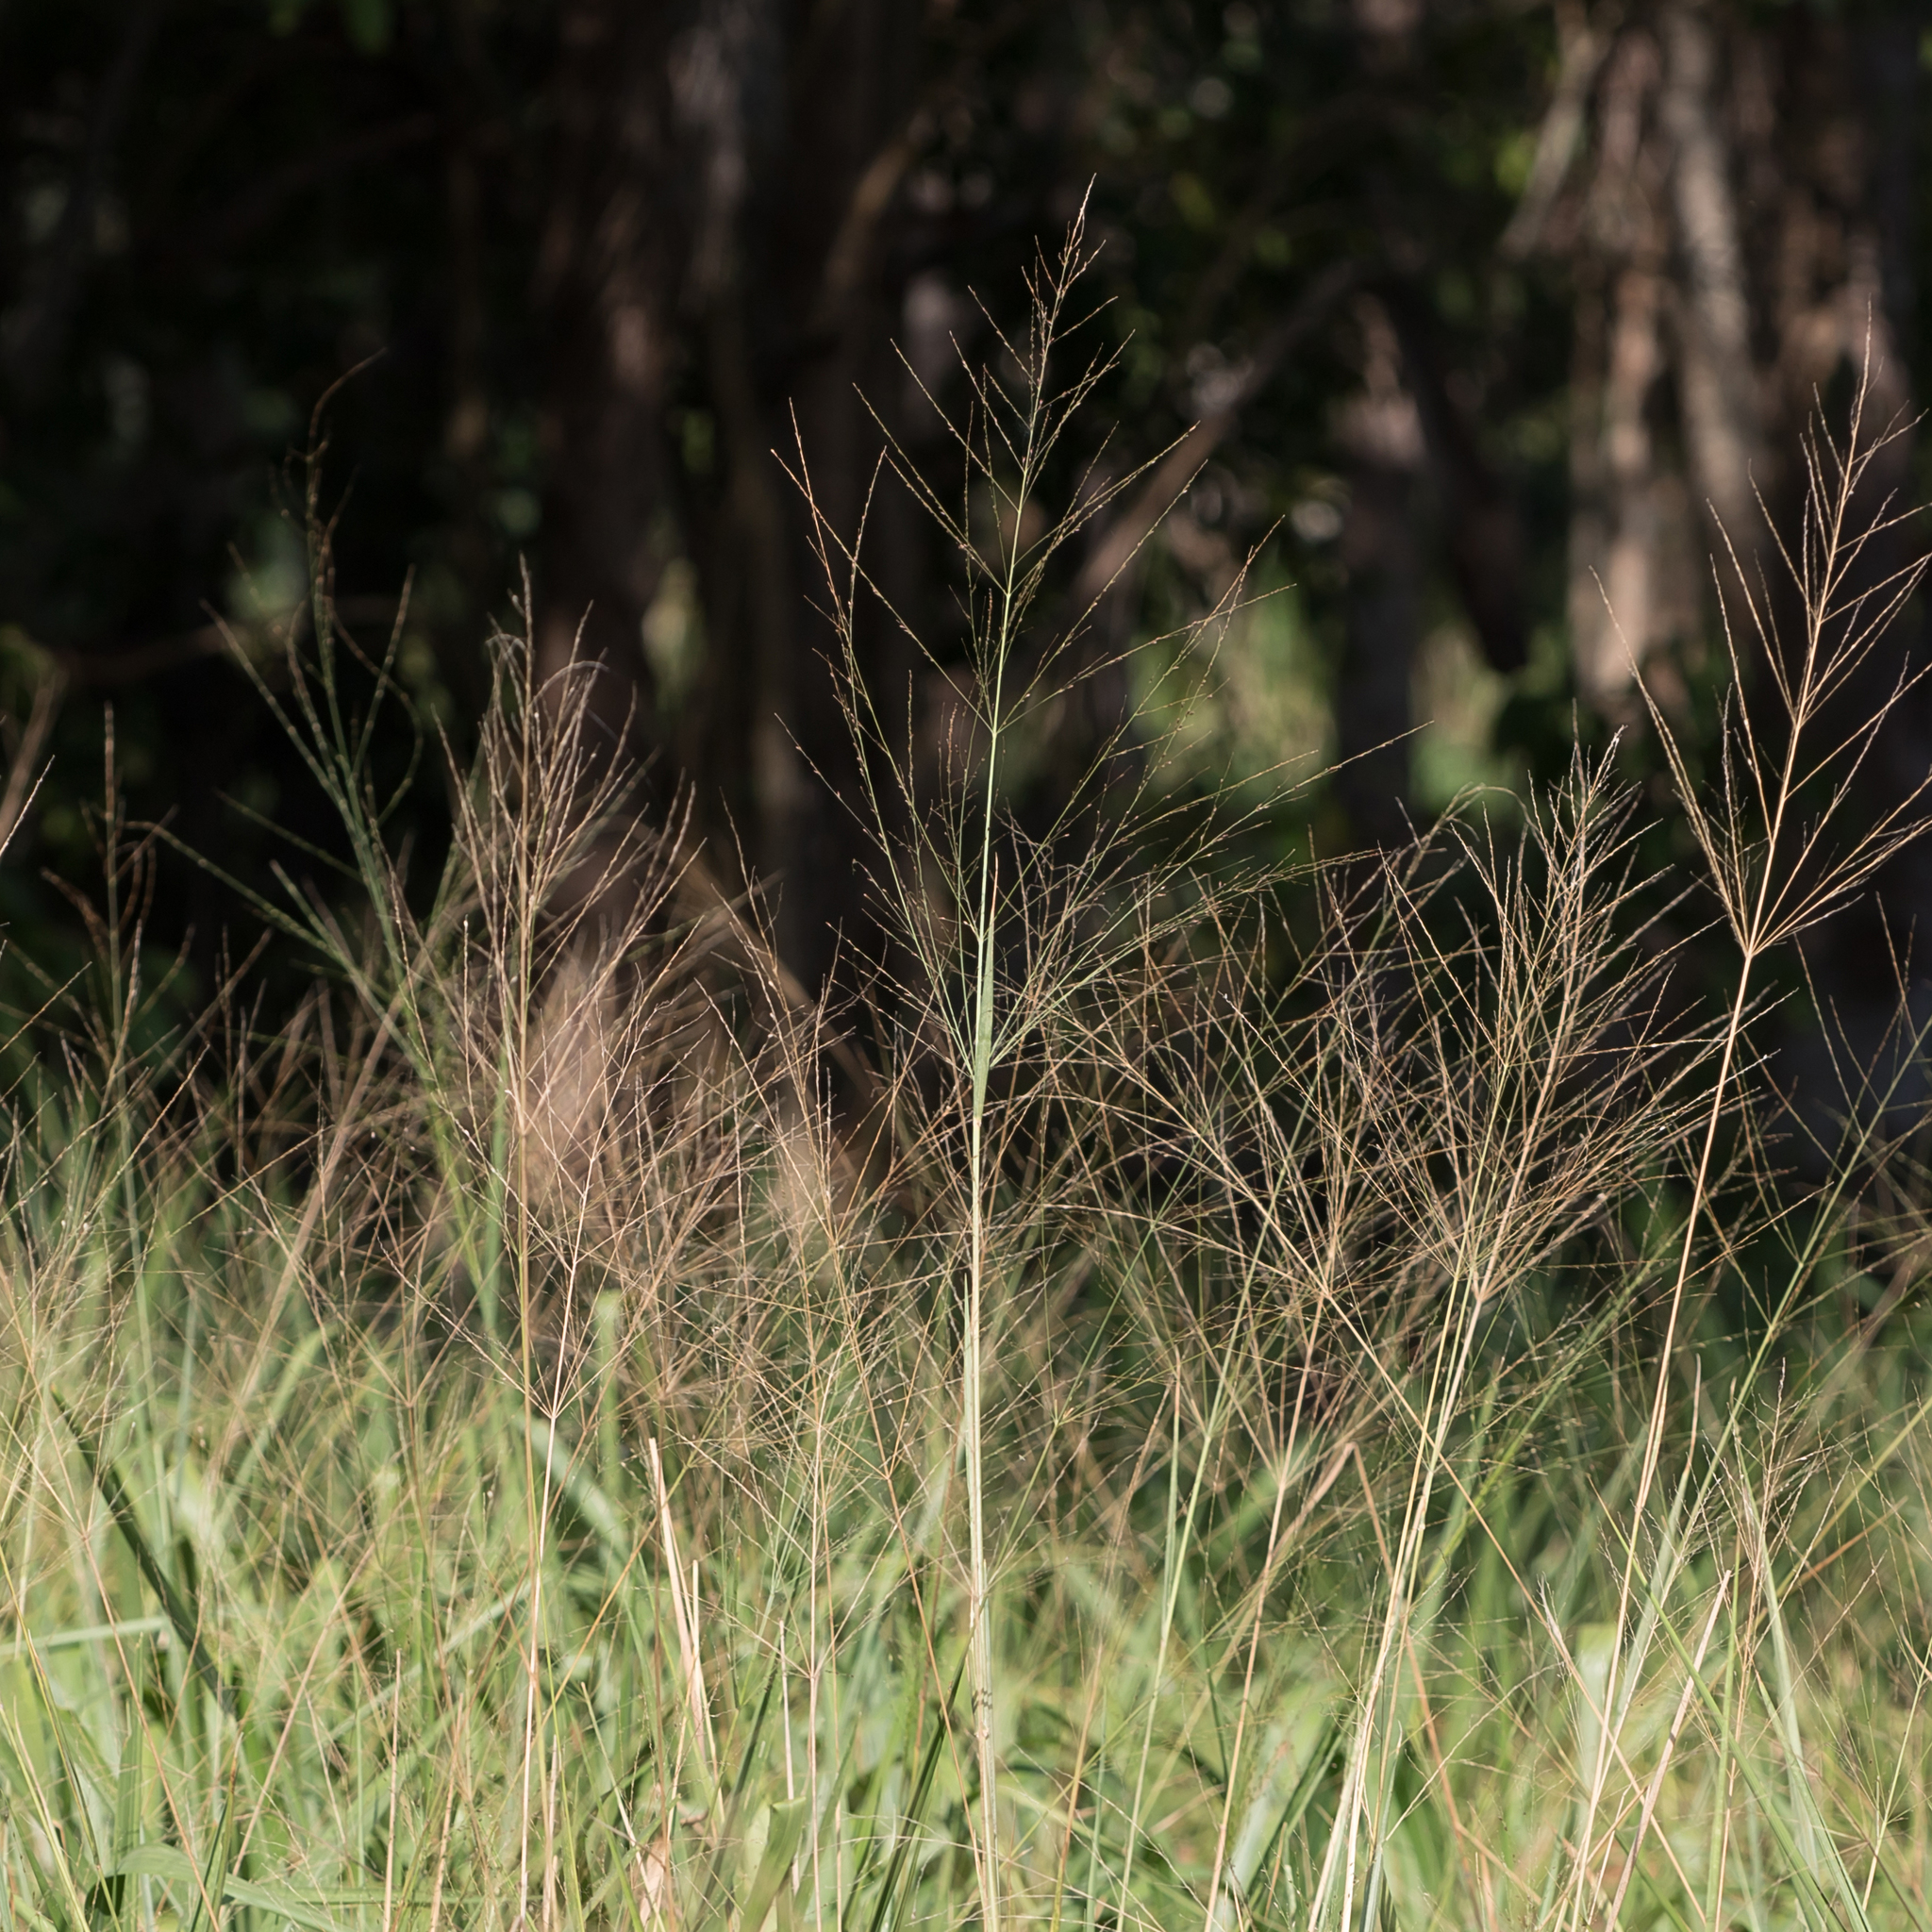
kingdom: Plantae
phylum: Tracheophyta
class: Liliopsida
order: Poales
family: Poaceae
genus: Megathyrsus
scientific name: Megathyrsus maximus
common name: Guineagrass
